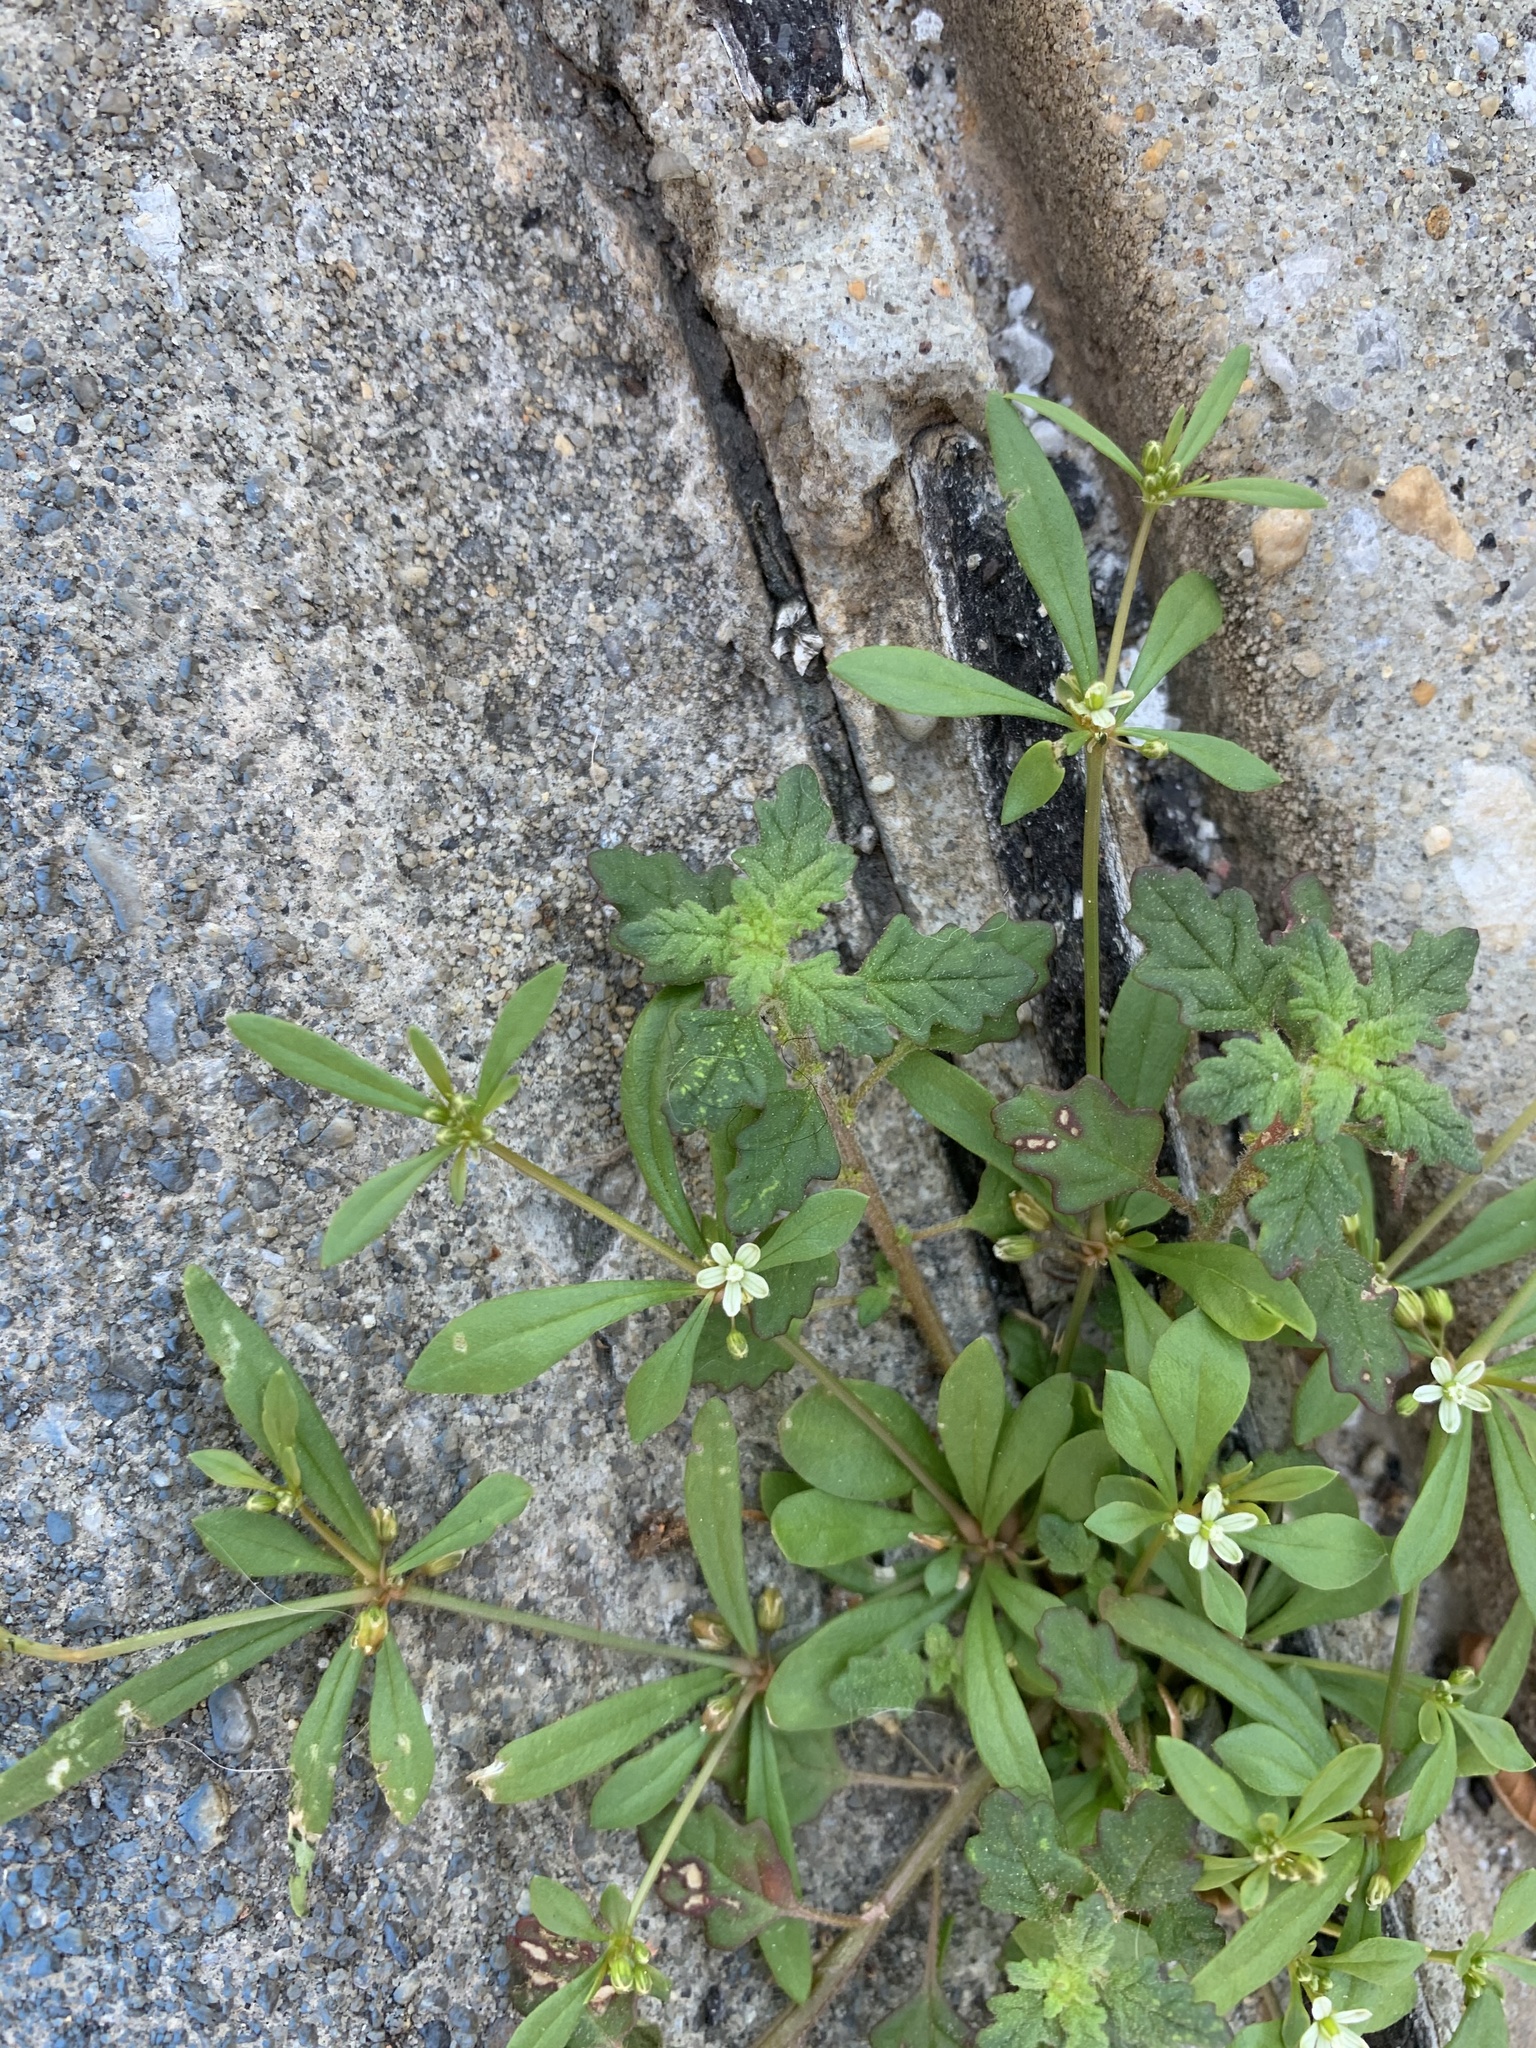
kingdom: Plantae
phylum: Tracheophyta
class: Magnoliopsida
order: Caryophyllales
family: Molluginaceae
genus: Mollugo
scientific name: Mollugo verticillata
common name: Green carpetweed
